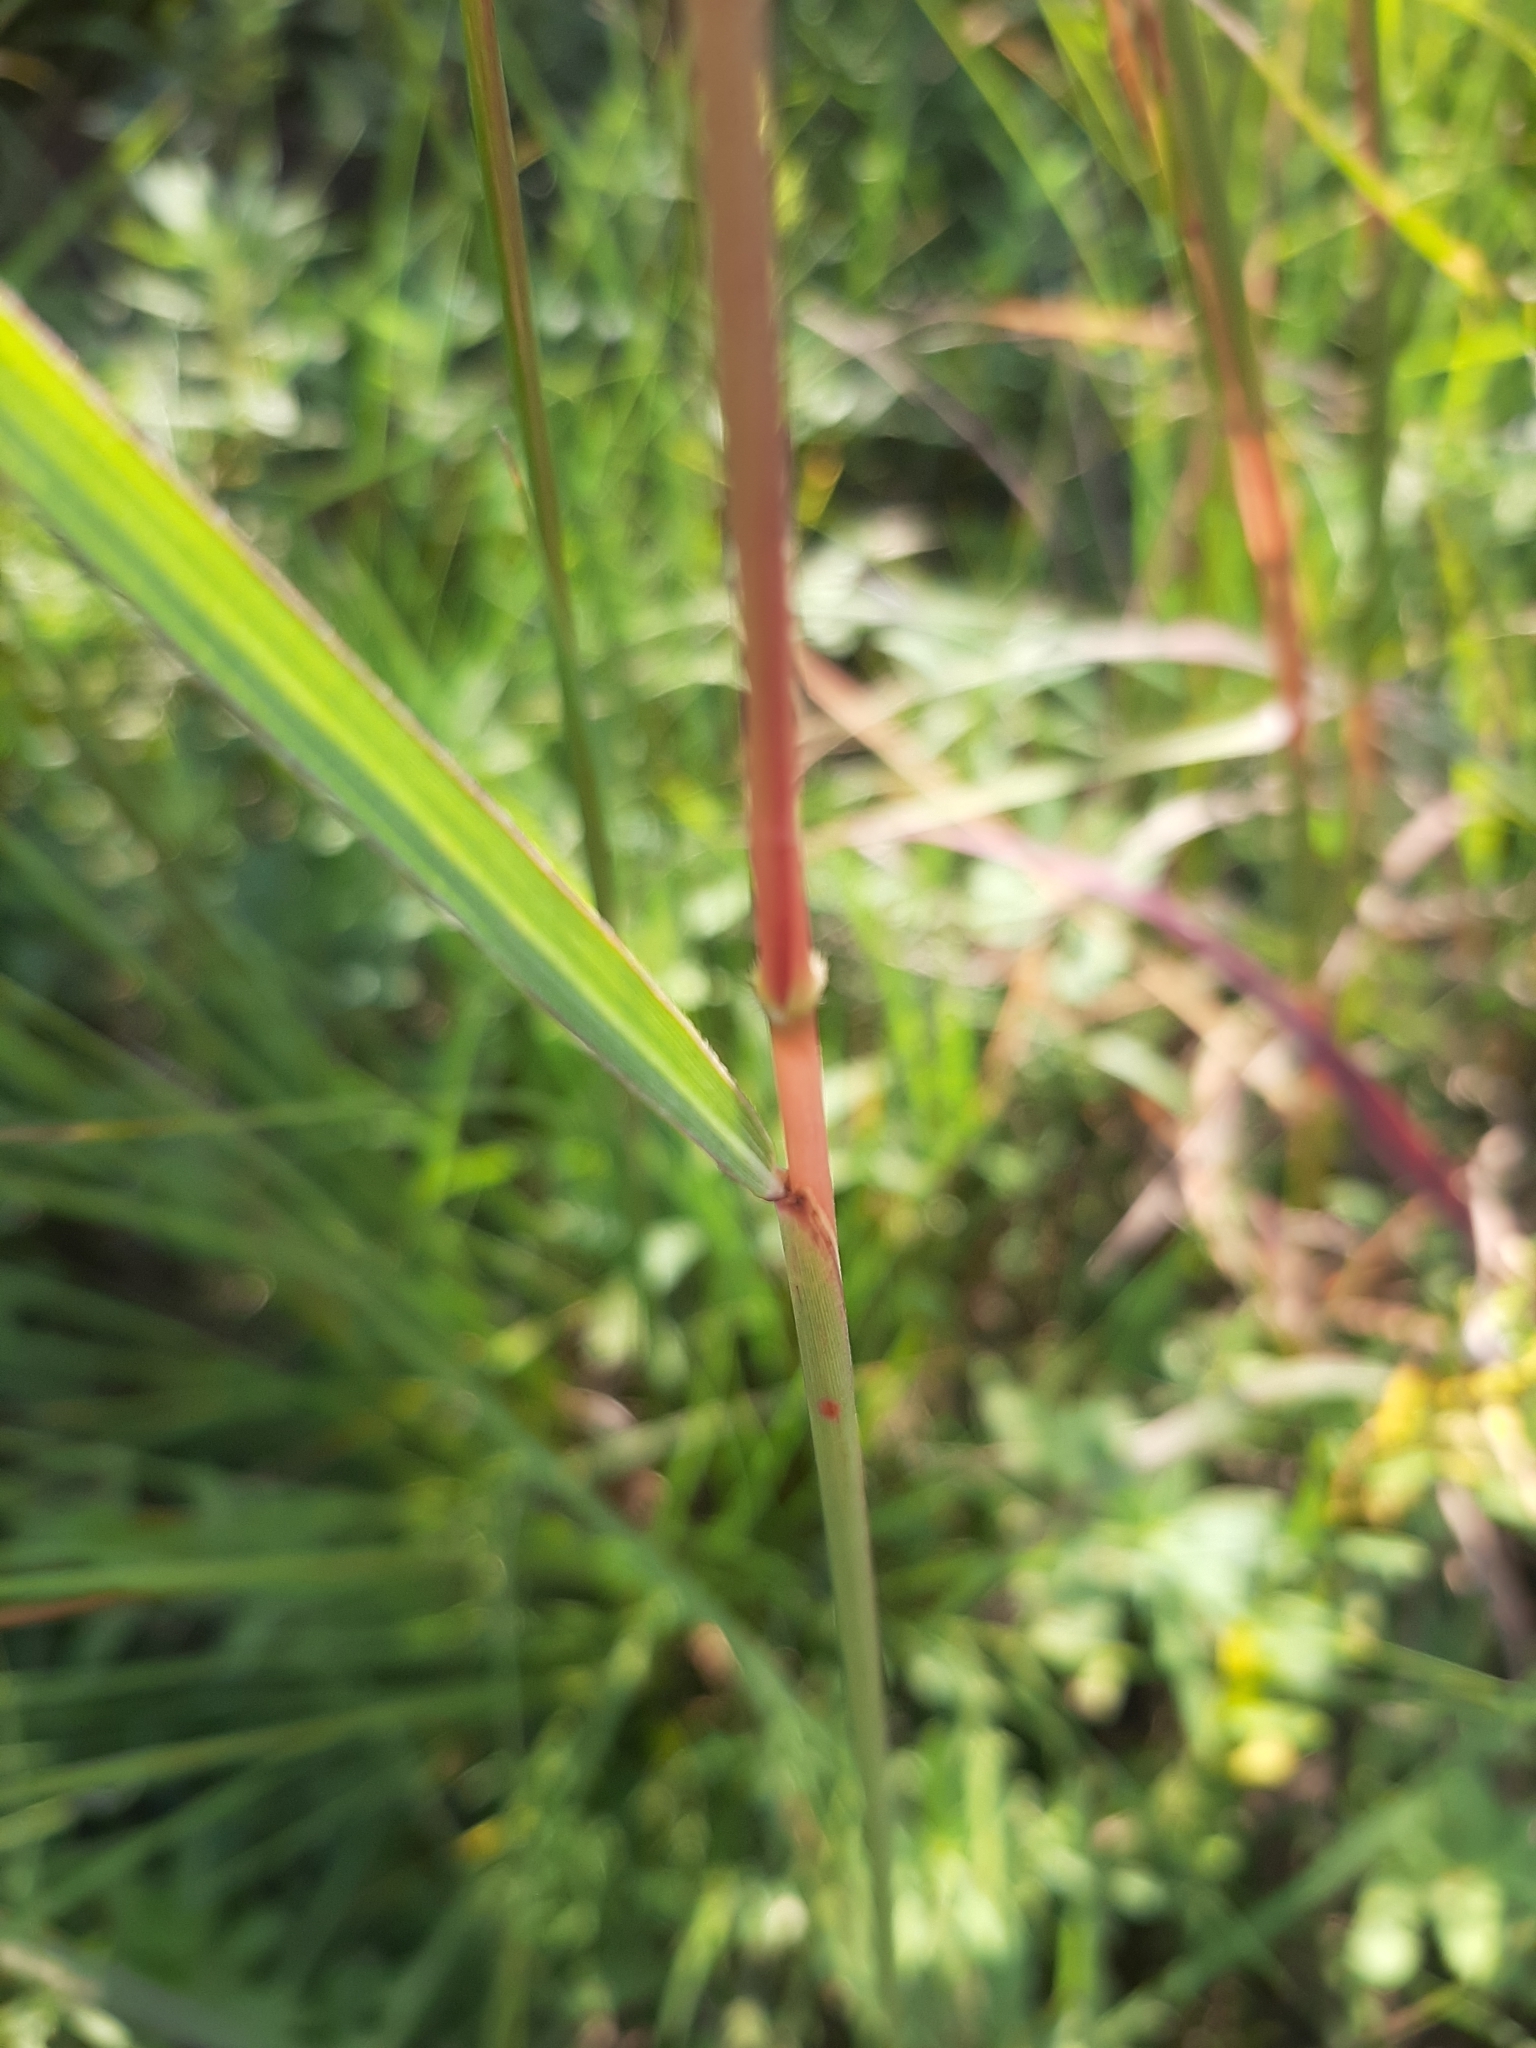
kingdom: Plantae
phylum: Tracheophyta
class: Liliopsida
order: Poales
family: Poaceae
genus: Sporobolus
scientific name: Sporobolus heterolepis
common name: Prairie dropseed
